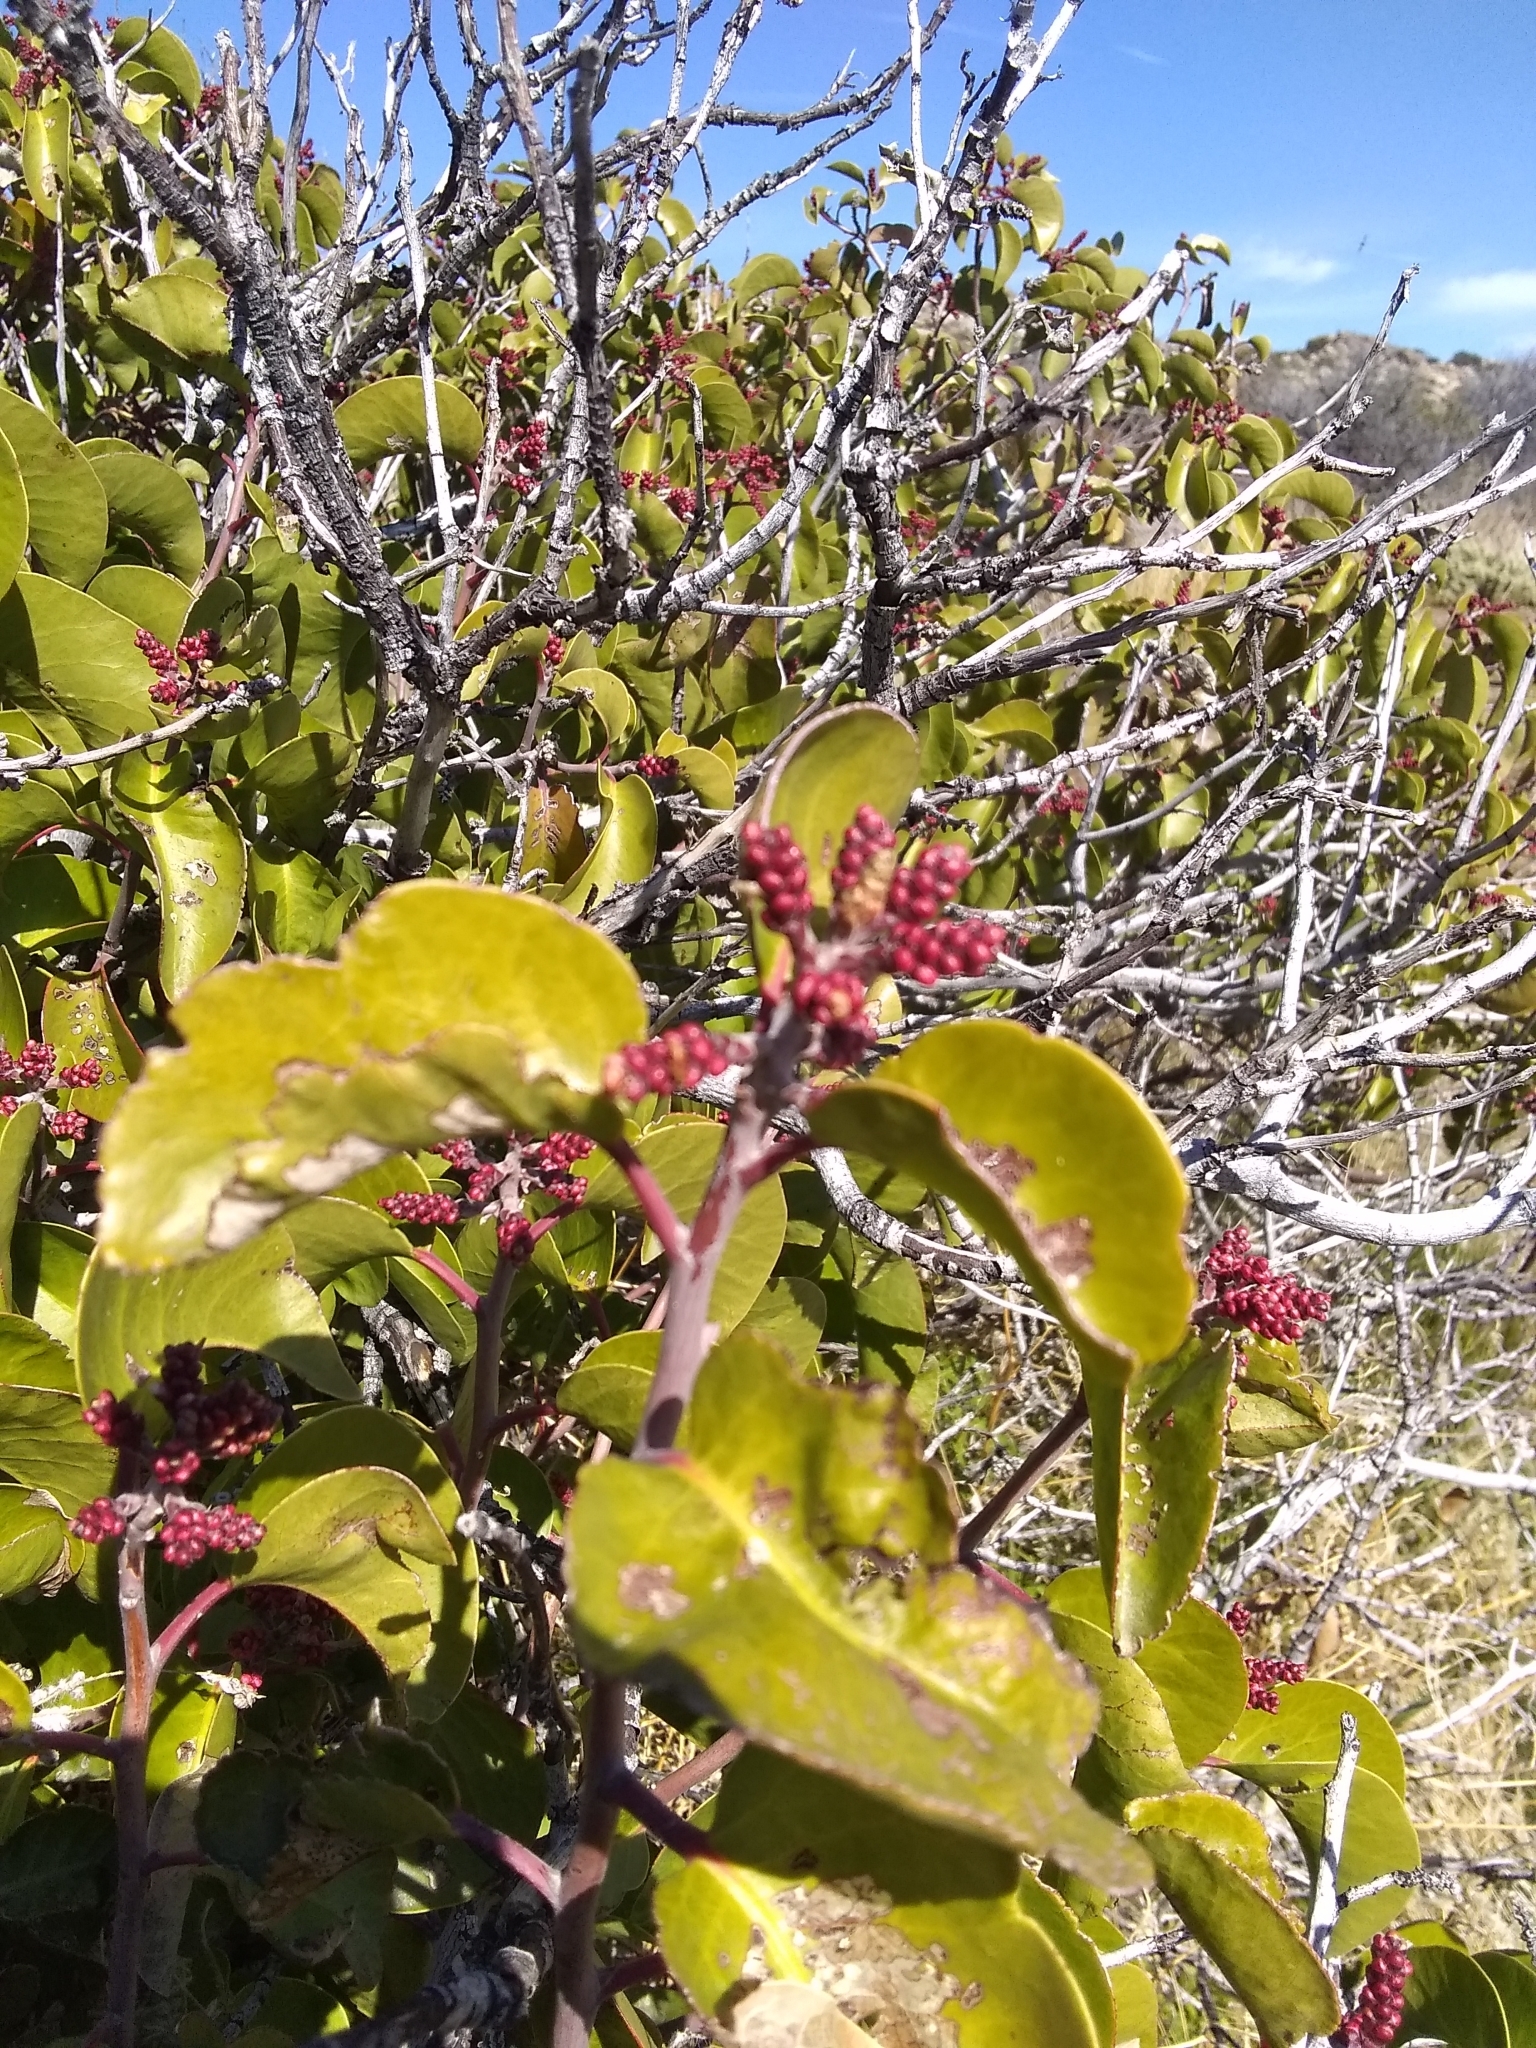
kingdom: Plantae
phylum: Tracheophyta
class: Magnoliopsida
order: Sapindales
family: Anacardiaceae
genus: Rhus
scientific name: Rhus ovata
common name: Sugar sumac
